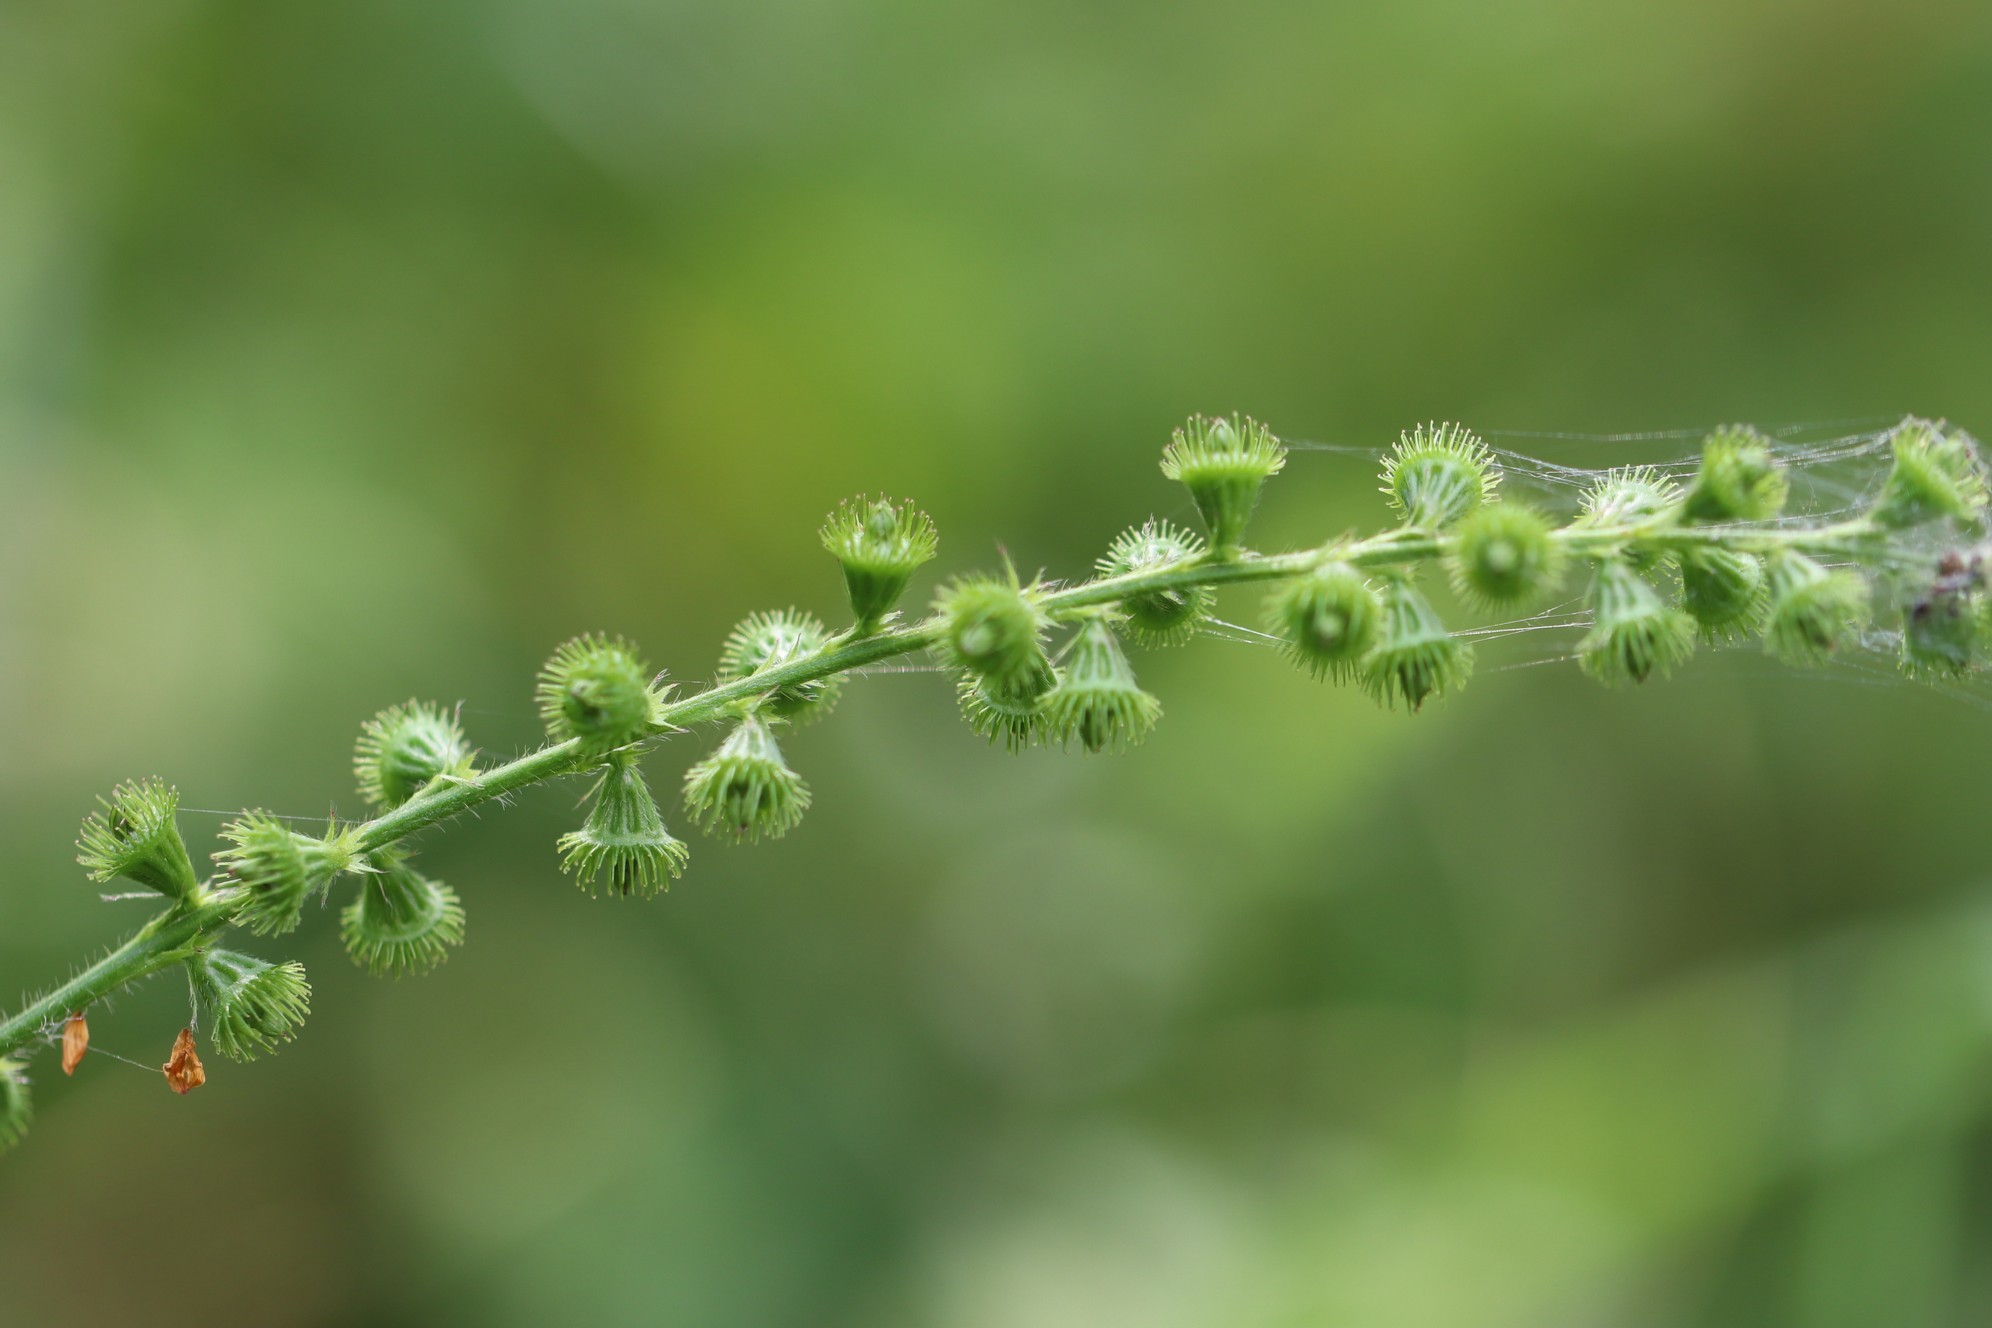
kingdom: Plantae
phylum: Tracheophyta
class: Magnoliopsida
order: Rosales
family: Rosaceae
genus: Agrimonia
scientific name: Agrimonia pilosa
